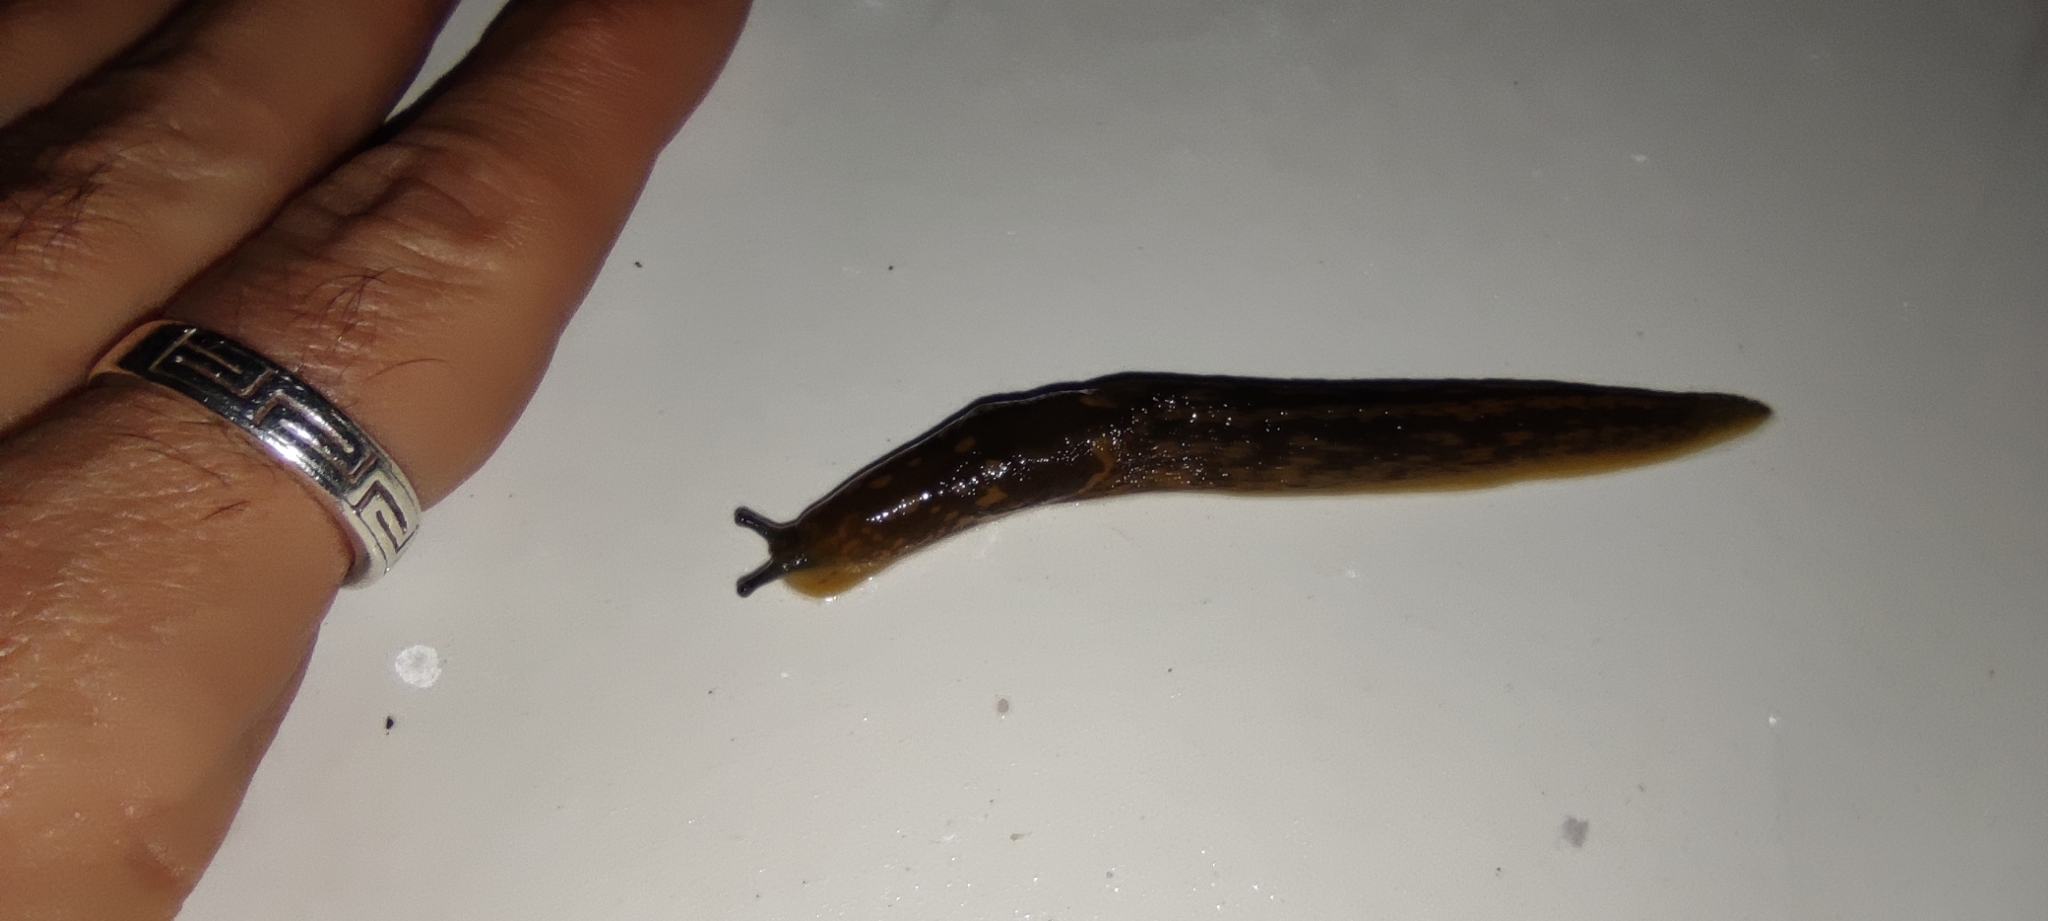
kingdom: Animalia
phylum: Mollusca
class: Gastropoda
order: Stylommatophora
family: Limacidae
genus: Limacus
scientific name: Limacus flavus
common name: Yellow gardenslug
